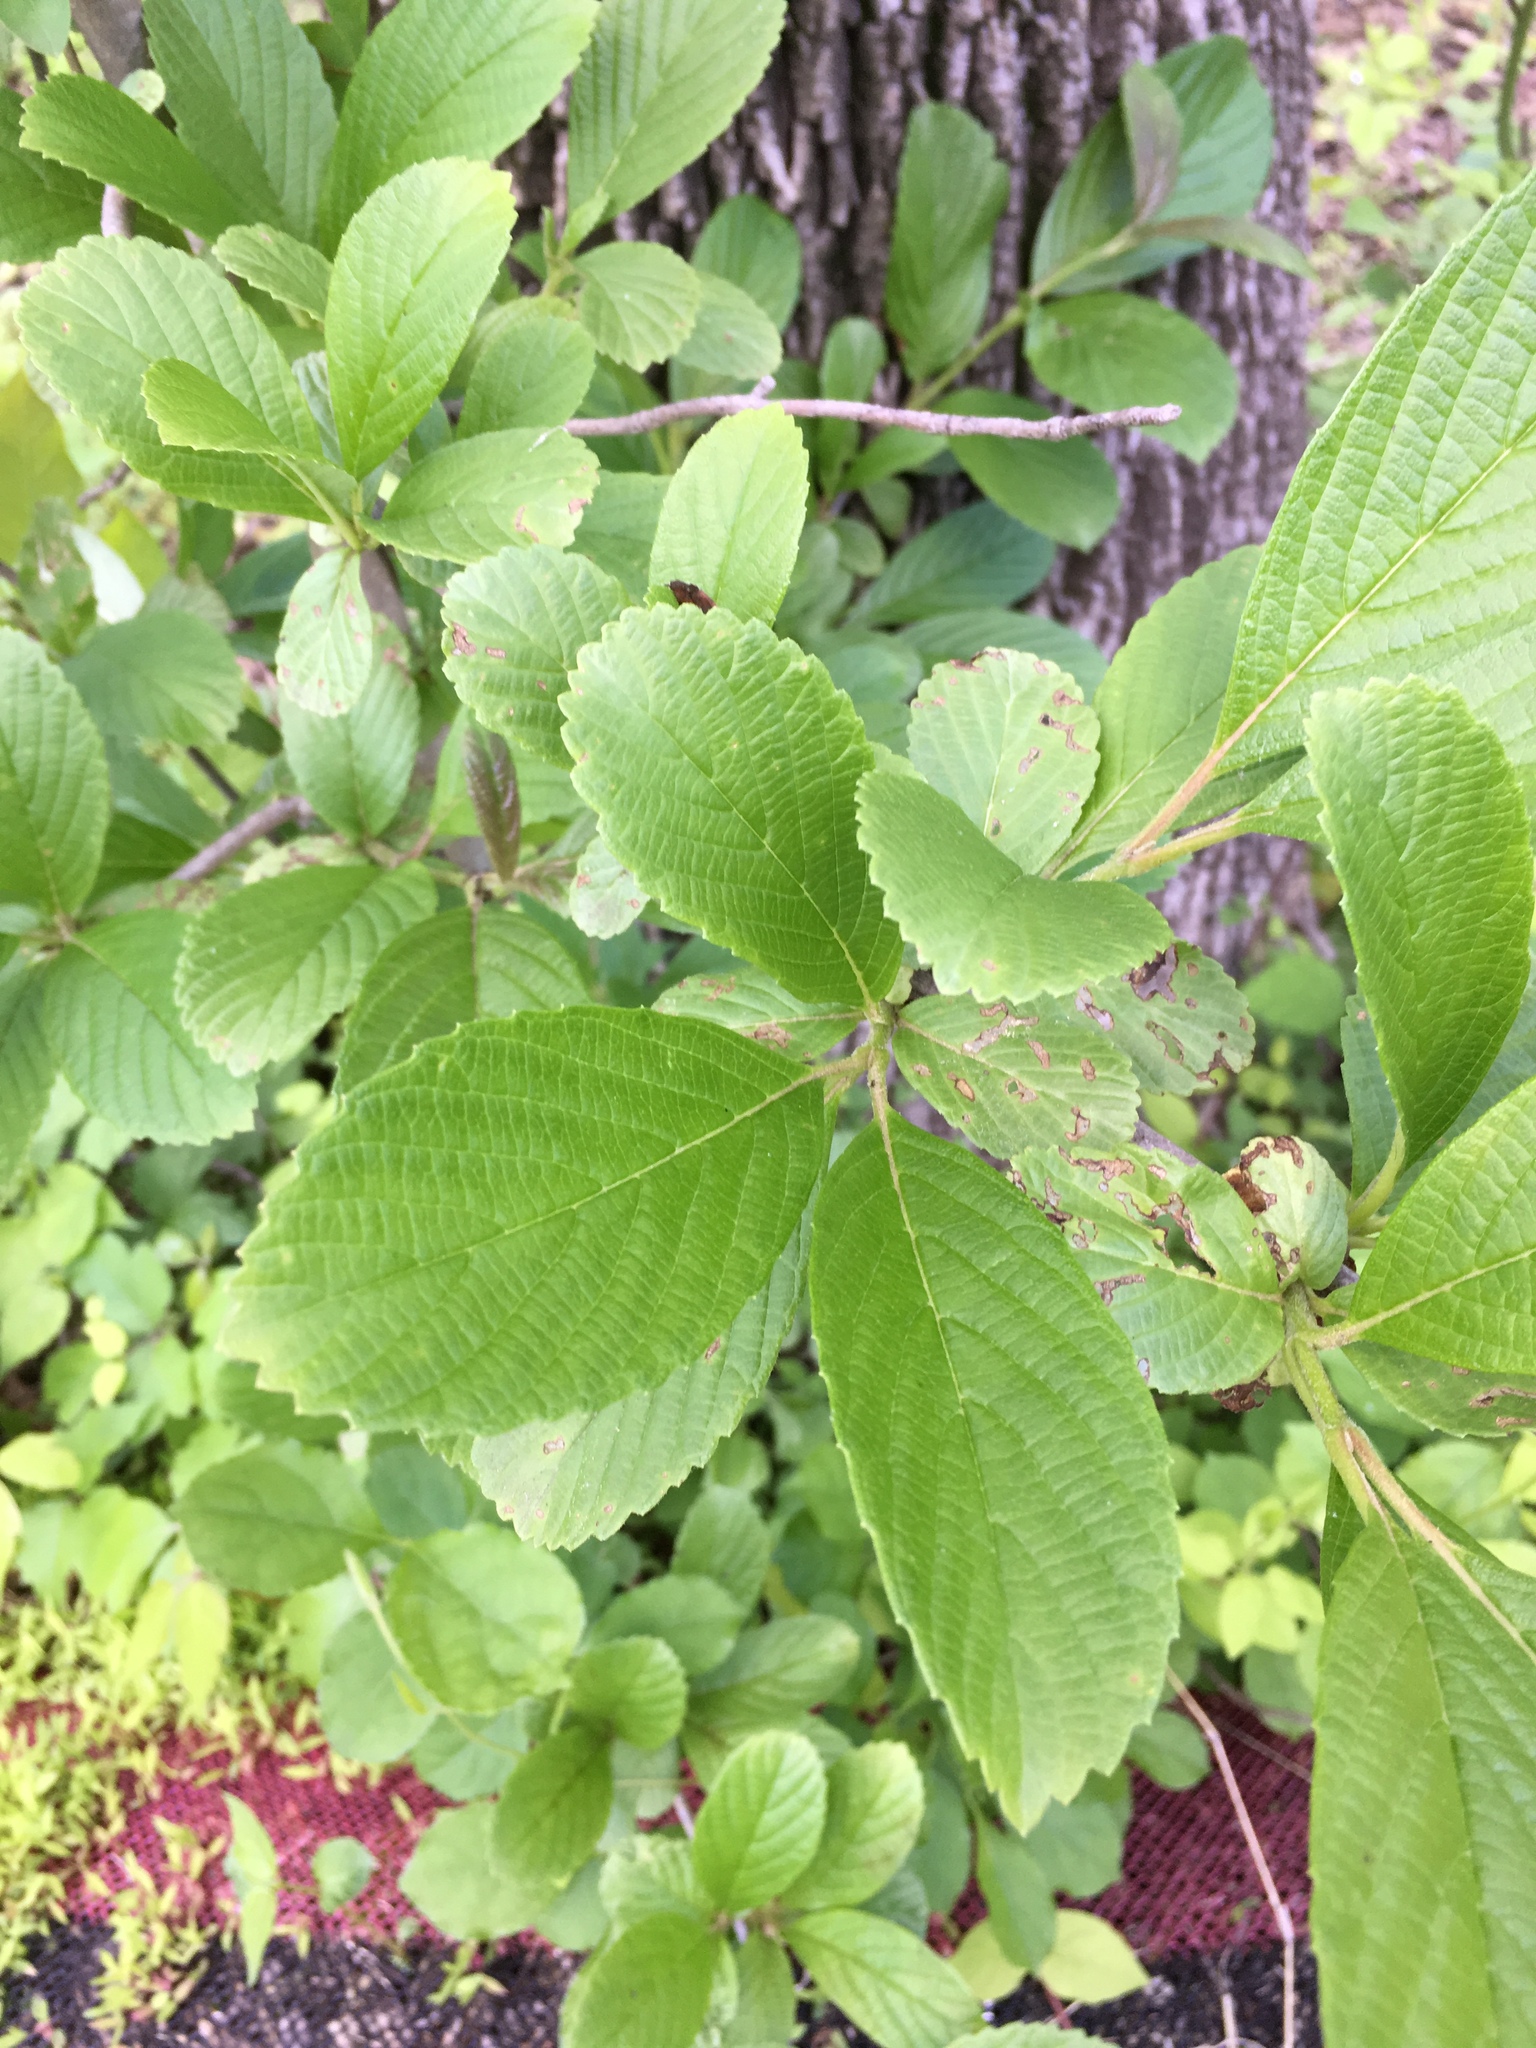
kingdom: Plantae
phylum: Tracheophyta
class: Magnoliopsida
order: Dipsacales
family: Viburnaceae
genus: Viburnum
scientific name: Viburnum sieboldii
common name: Siebold's arrowwood
